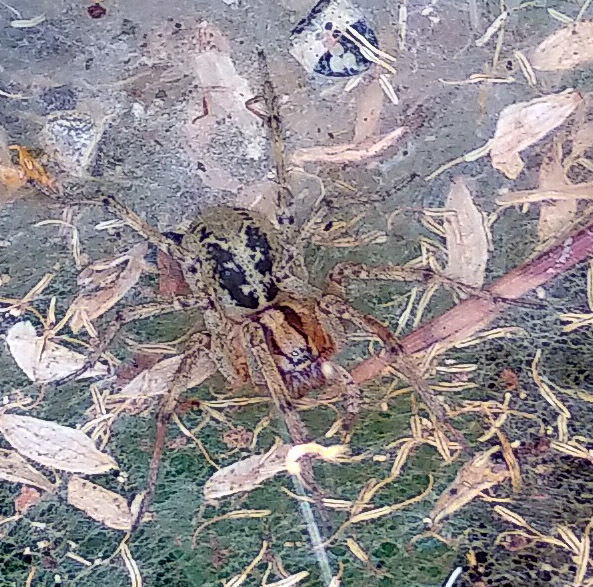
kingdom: Animalia
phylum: Arthropoda
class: Arachnida
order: Araneae
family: Agelenidae
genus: Agelena
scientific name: Agelena labyrinthica
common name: Labyrinth spider
